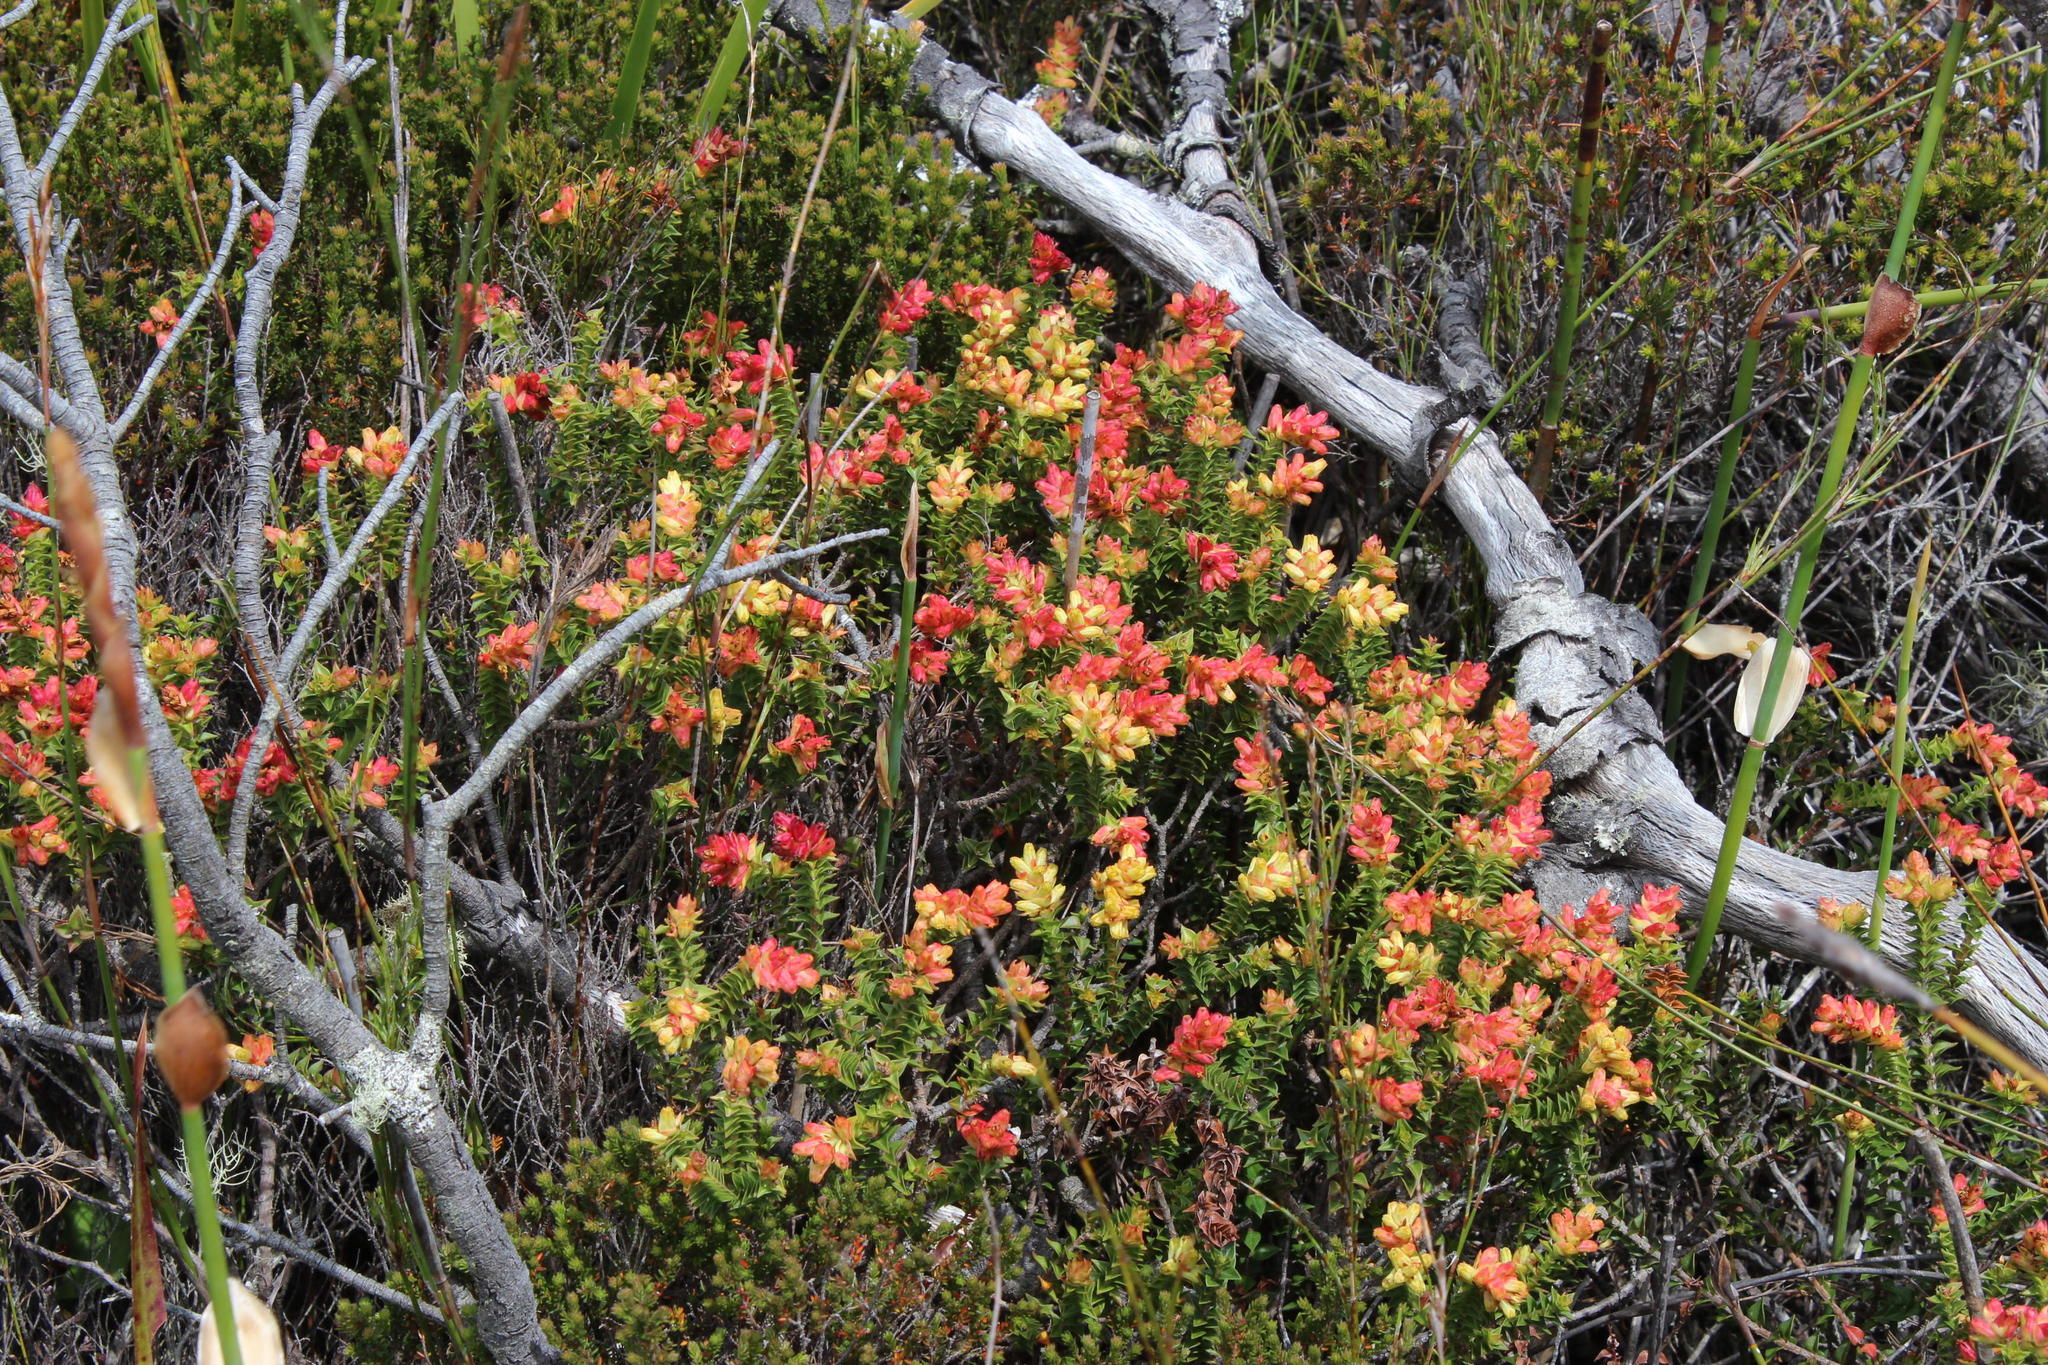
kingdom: Plantae
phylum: Tracheophyta
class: Magnoliopsida
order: Myrtales
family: Penaeaceae
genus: Penaea
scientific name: Penaea mucronata
